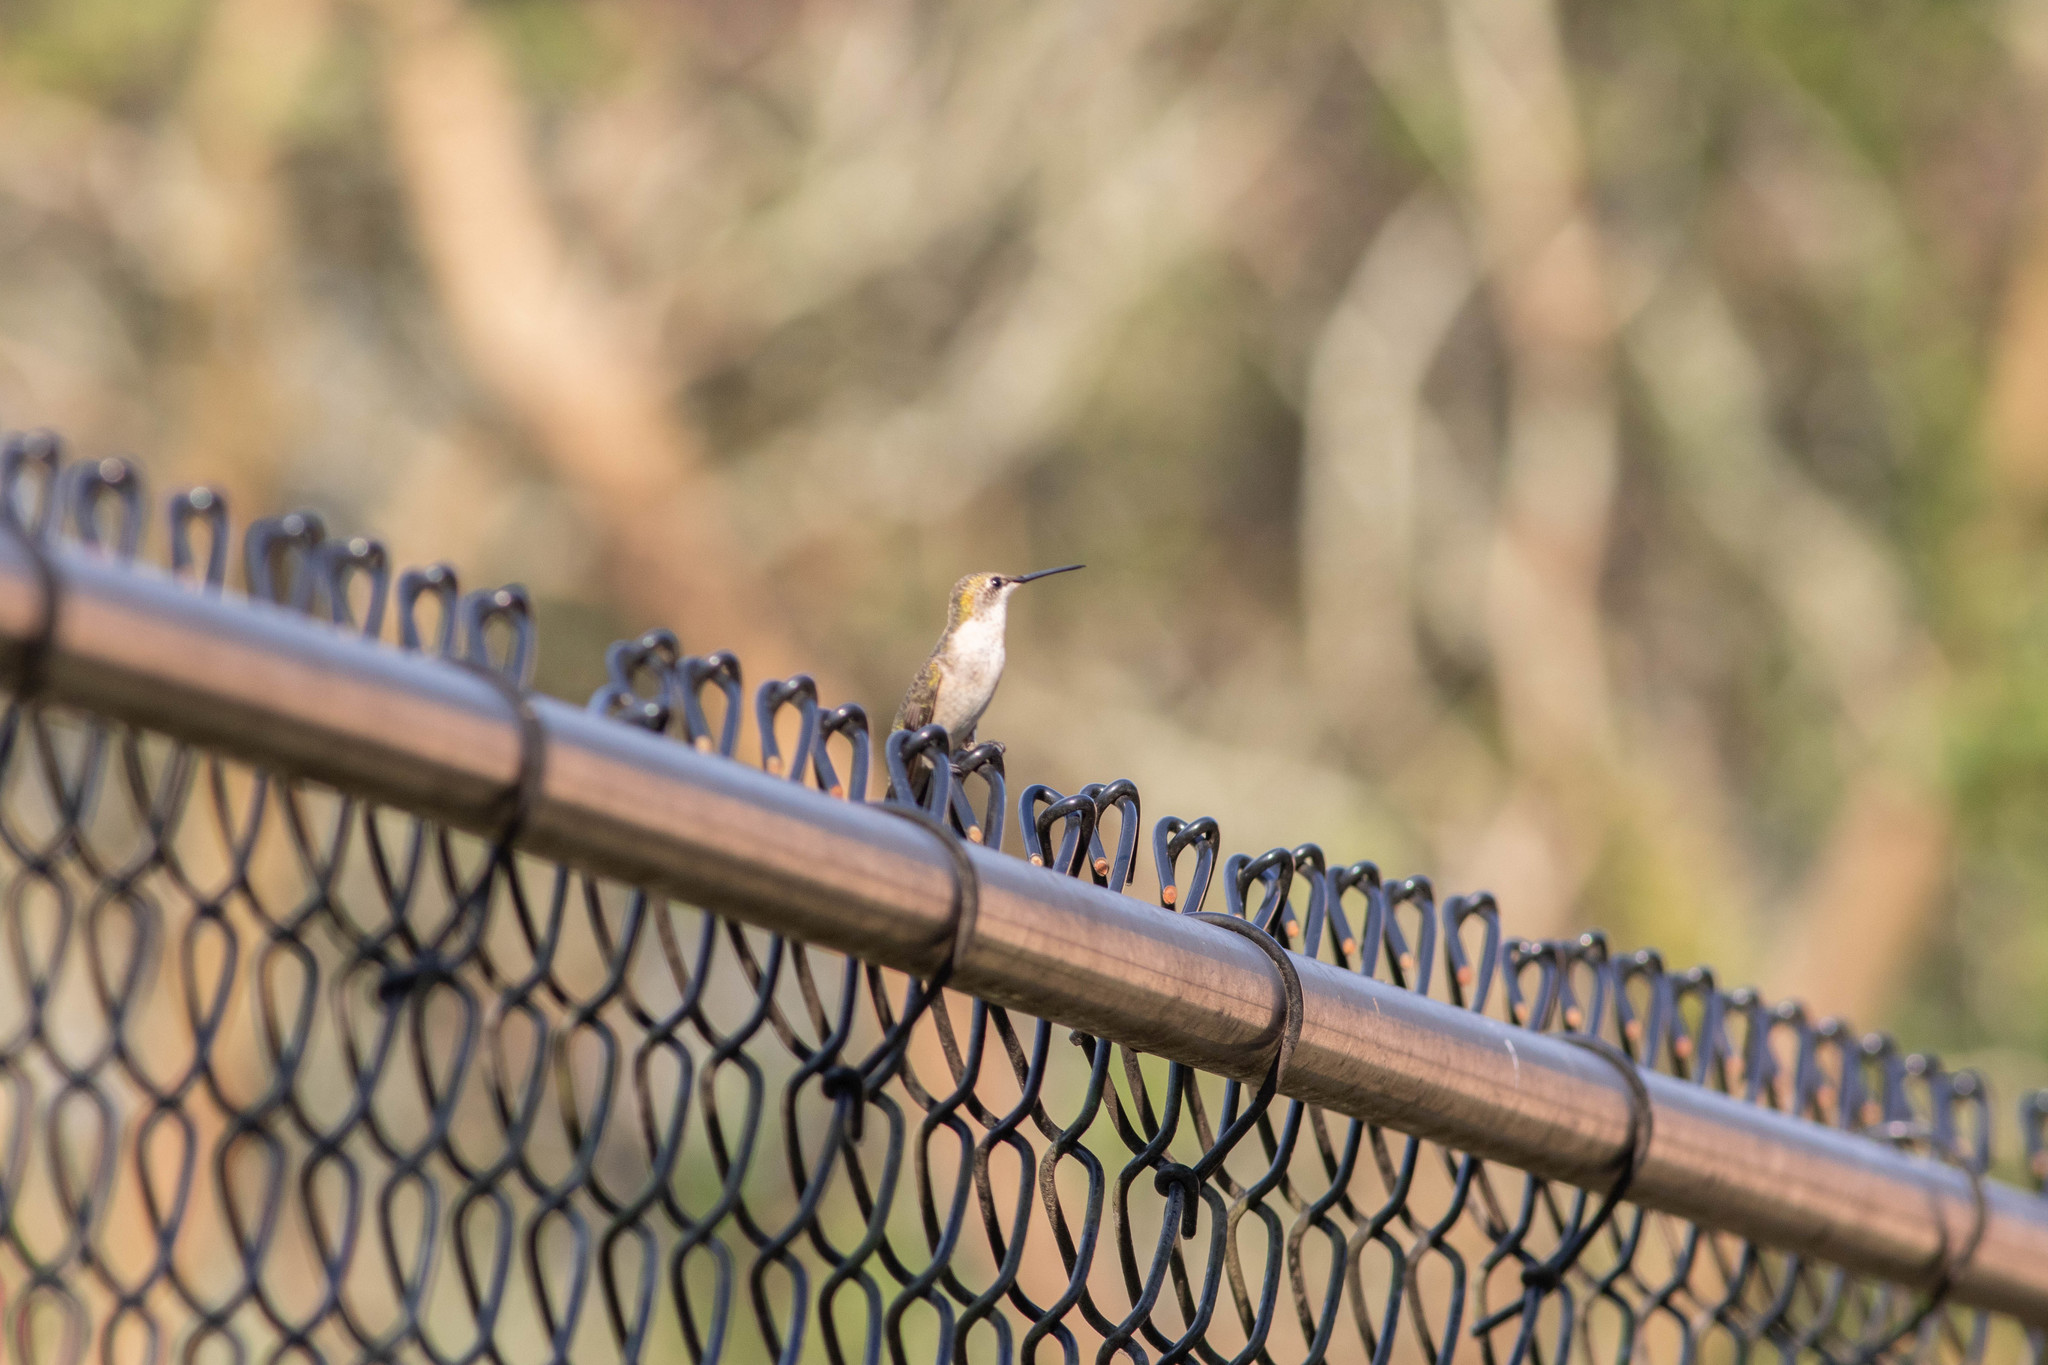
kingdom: Animalia
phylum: Chordata
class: Aves
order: Apodiformes
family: Trochilidae
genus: Archilochus
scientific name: Archilochus colubris
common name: Ruby-throated hummingbird
